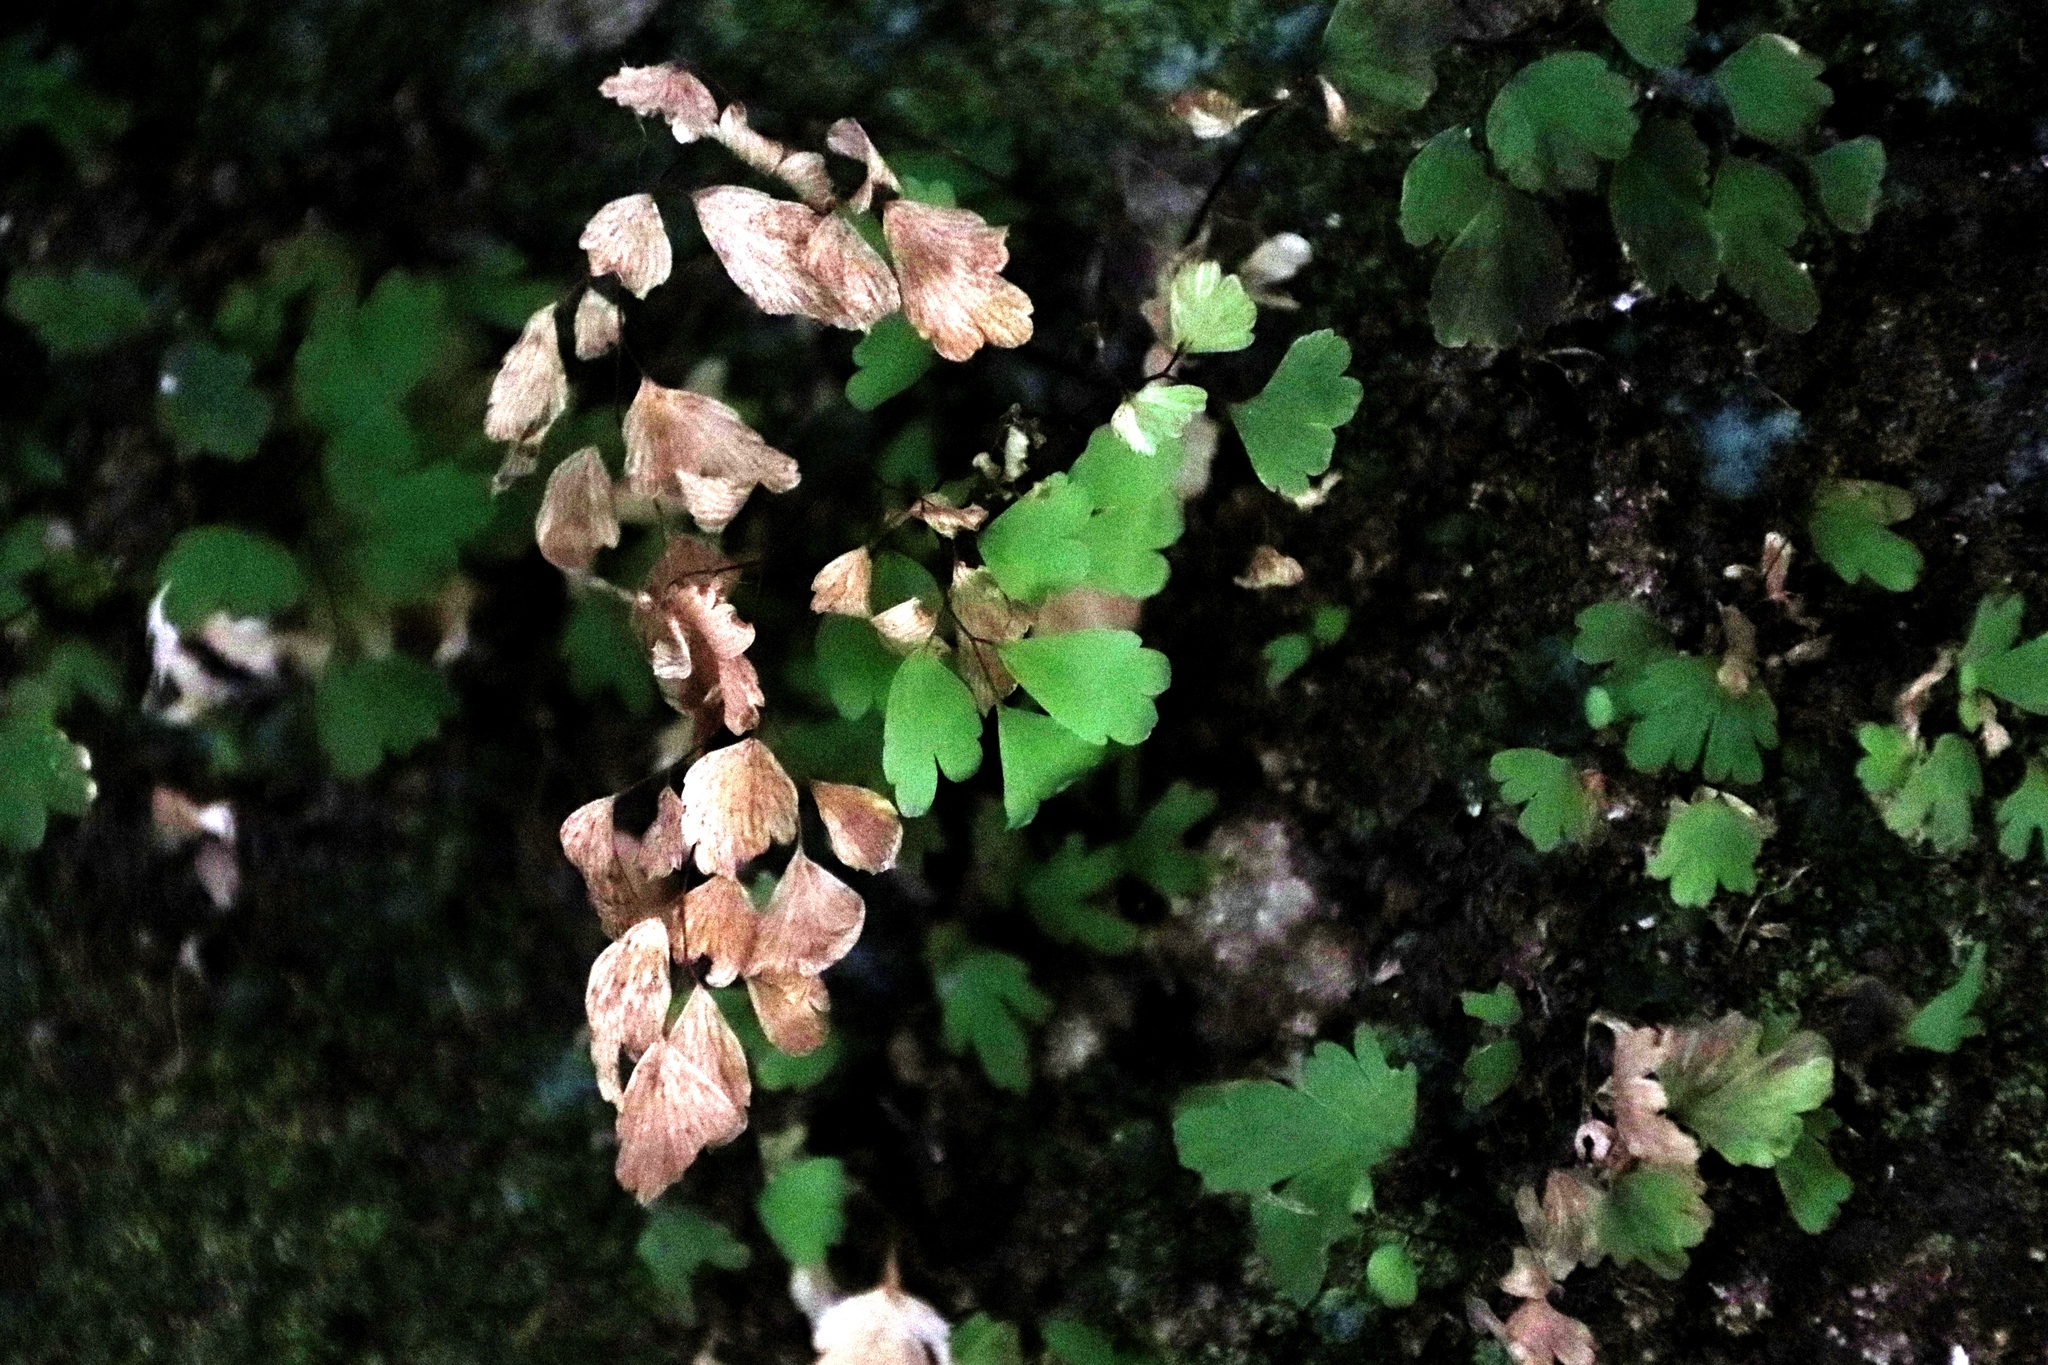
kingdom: Plantae
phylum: Tracheophyta
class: Polypodiopsida
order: Polypodiales
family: Pteridaceae
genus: Adiantum
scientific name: Adiantum poiretii
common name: Mexican maidenhair
